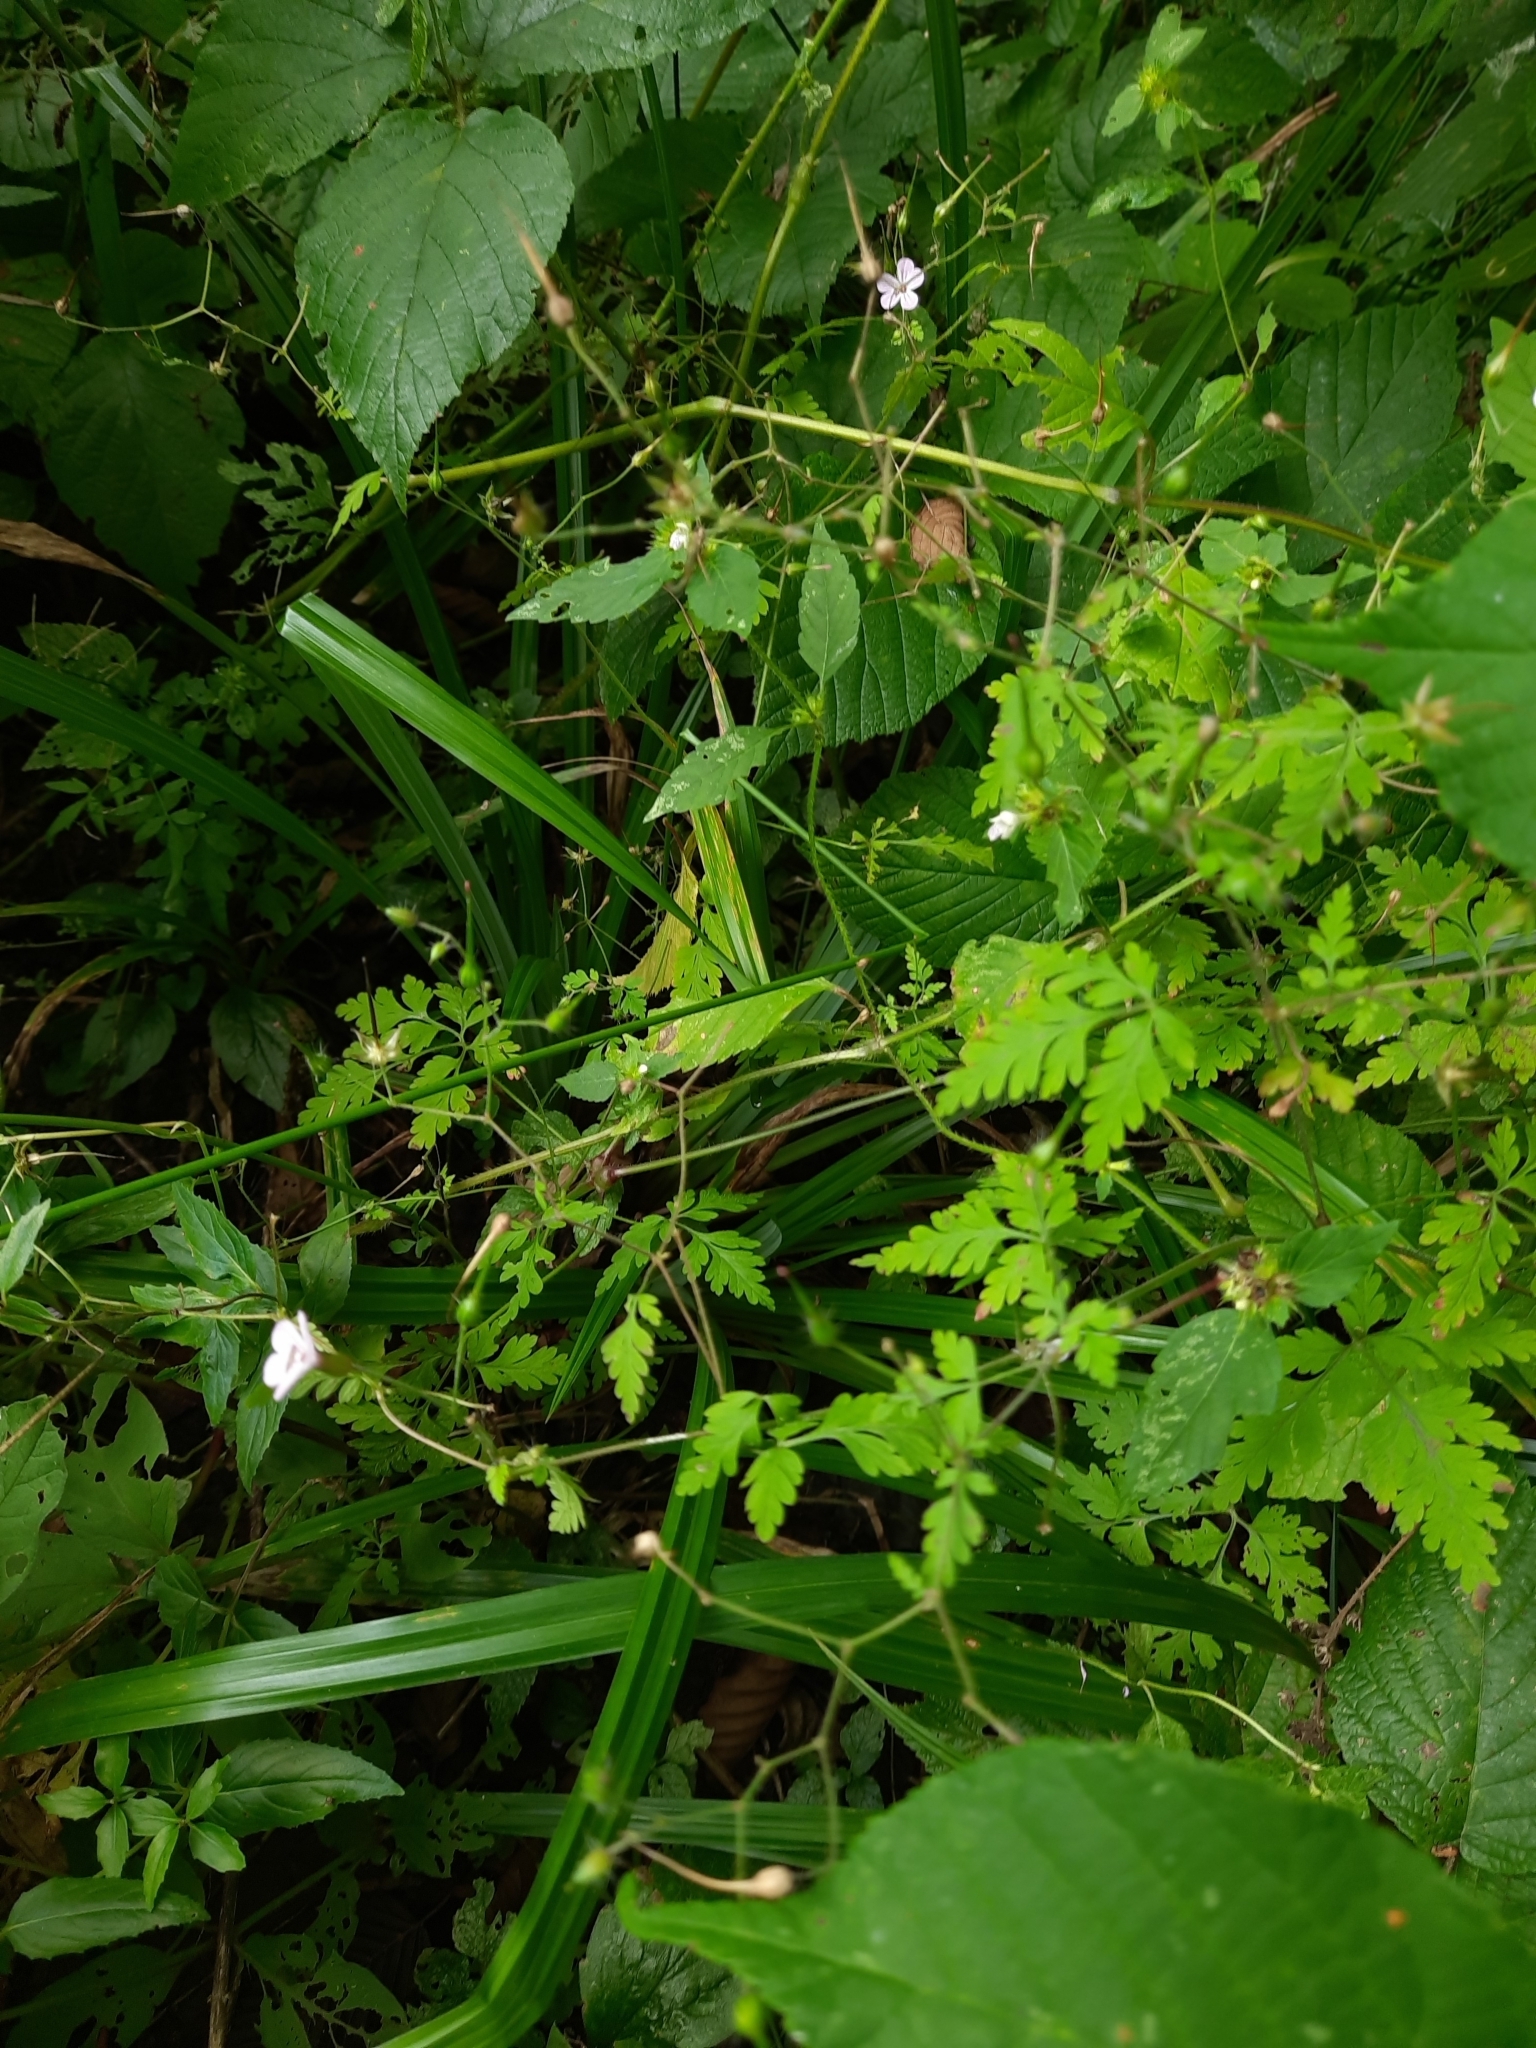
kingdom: Plantae
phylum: Tracheophyta
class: Magnoliopsida
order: Geraniales
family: Geraniaceae
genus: Geranium
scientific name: Geranium robertianum
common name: Herb-robert
